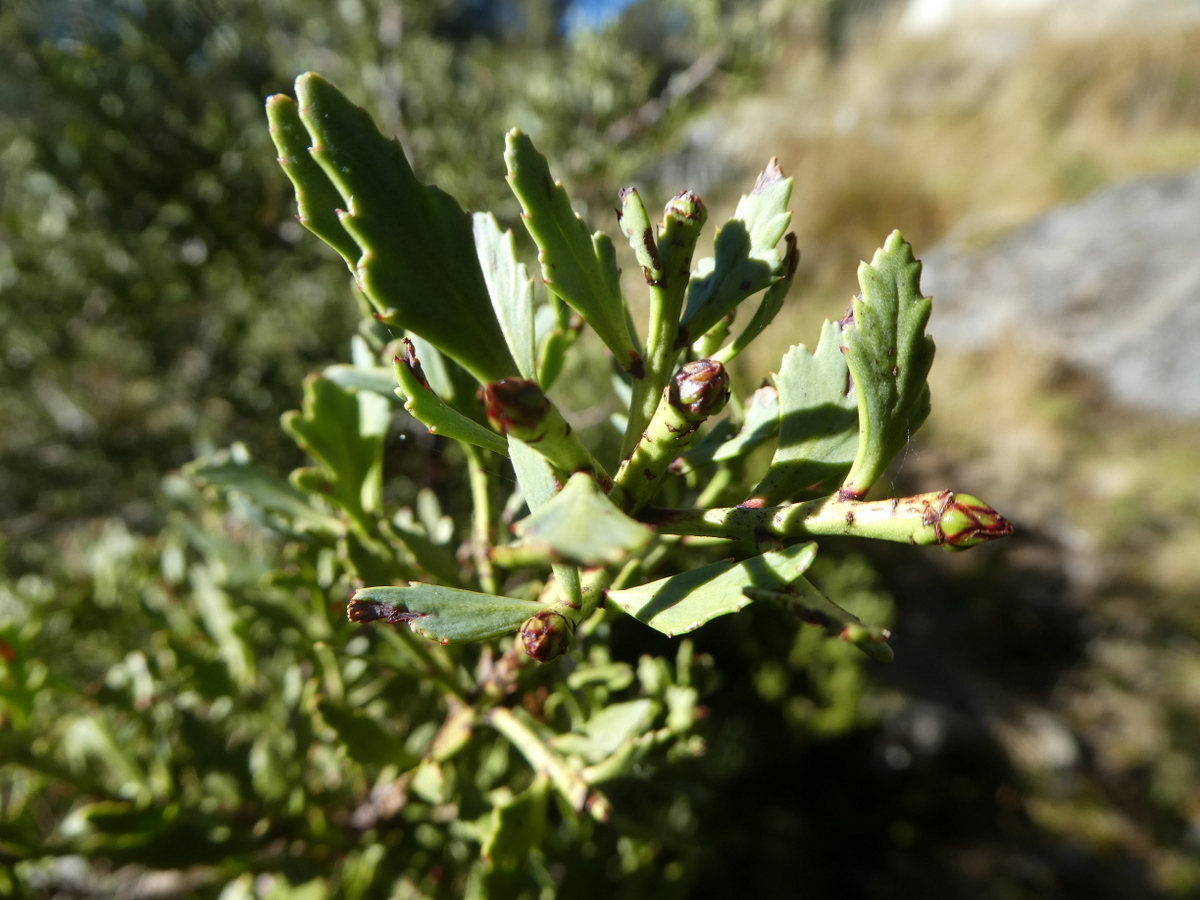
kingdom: Plantae
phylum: Tracheophyta
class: Pinopsida
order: Pinales
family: Phyllocladaceae
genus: Phyllocladus
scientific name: Phyllocladus trichomanoides
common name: Celery pine
